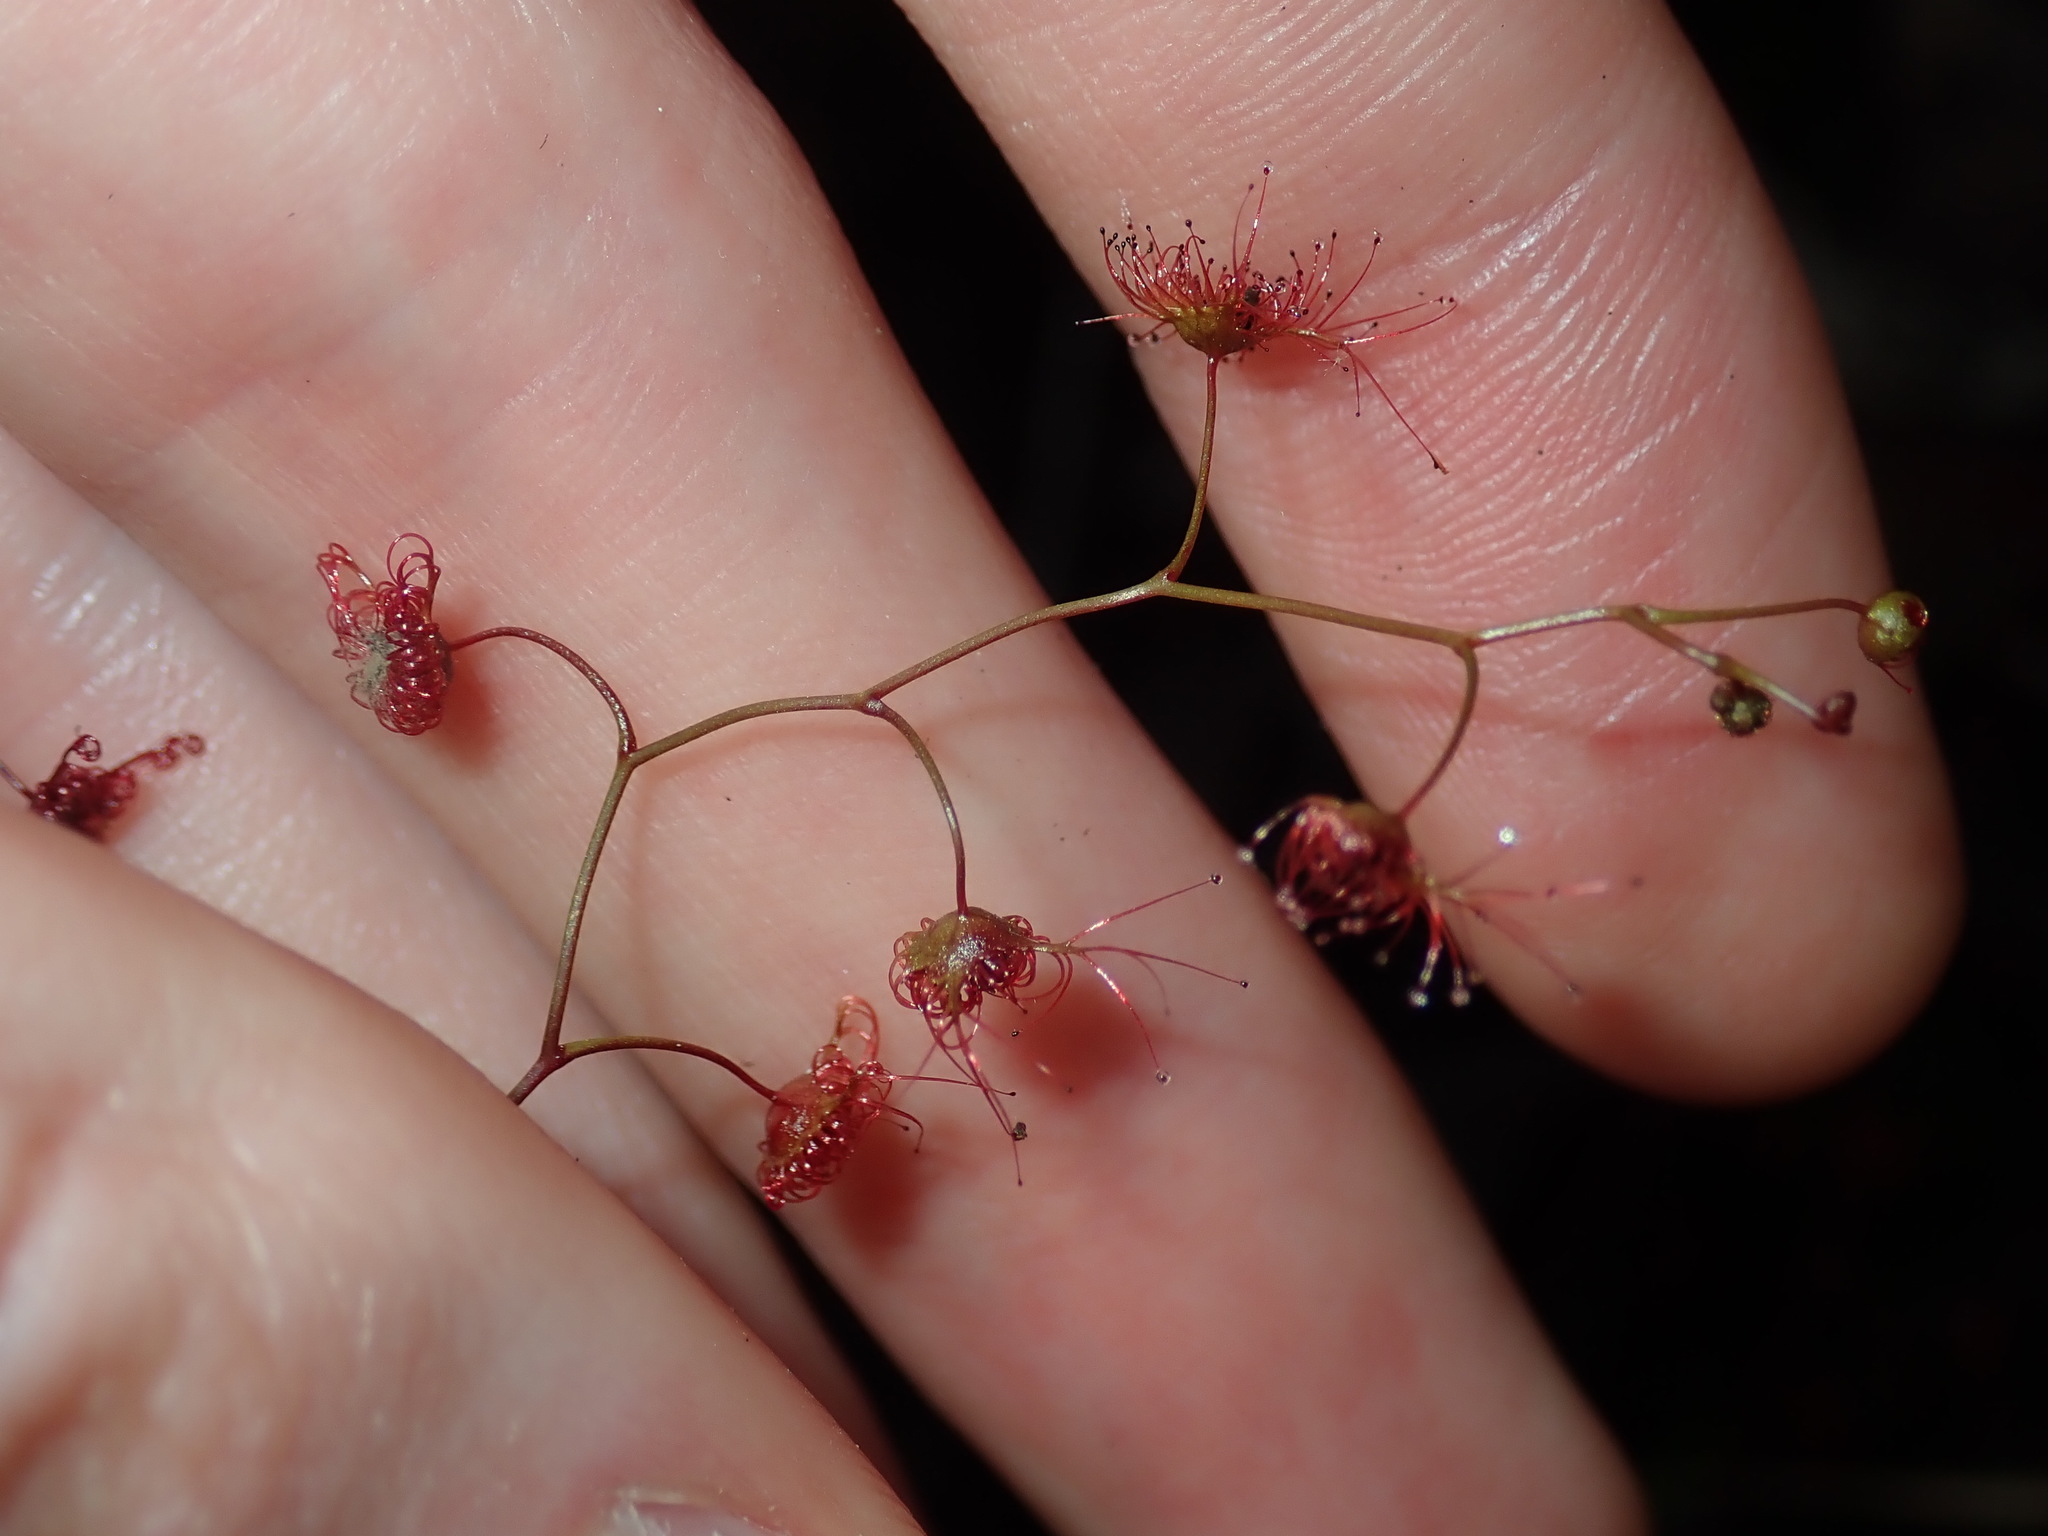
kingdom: Plantae
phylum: Tracheophyta
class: Magnoliopsida
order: Caryophyllales
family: Droseraceae
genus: Drosera
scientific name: Drosera peltata
